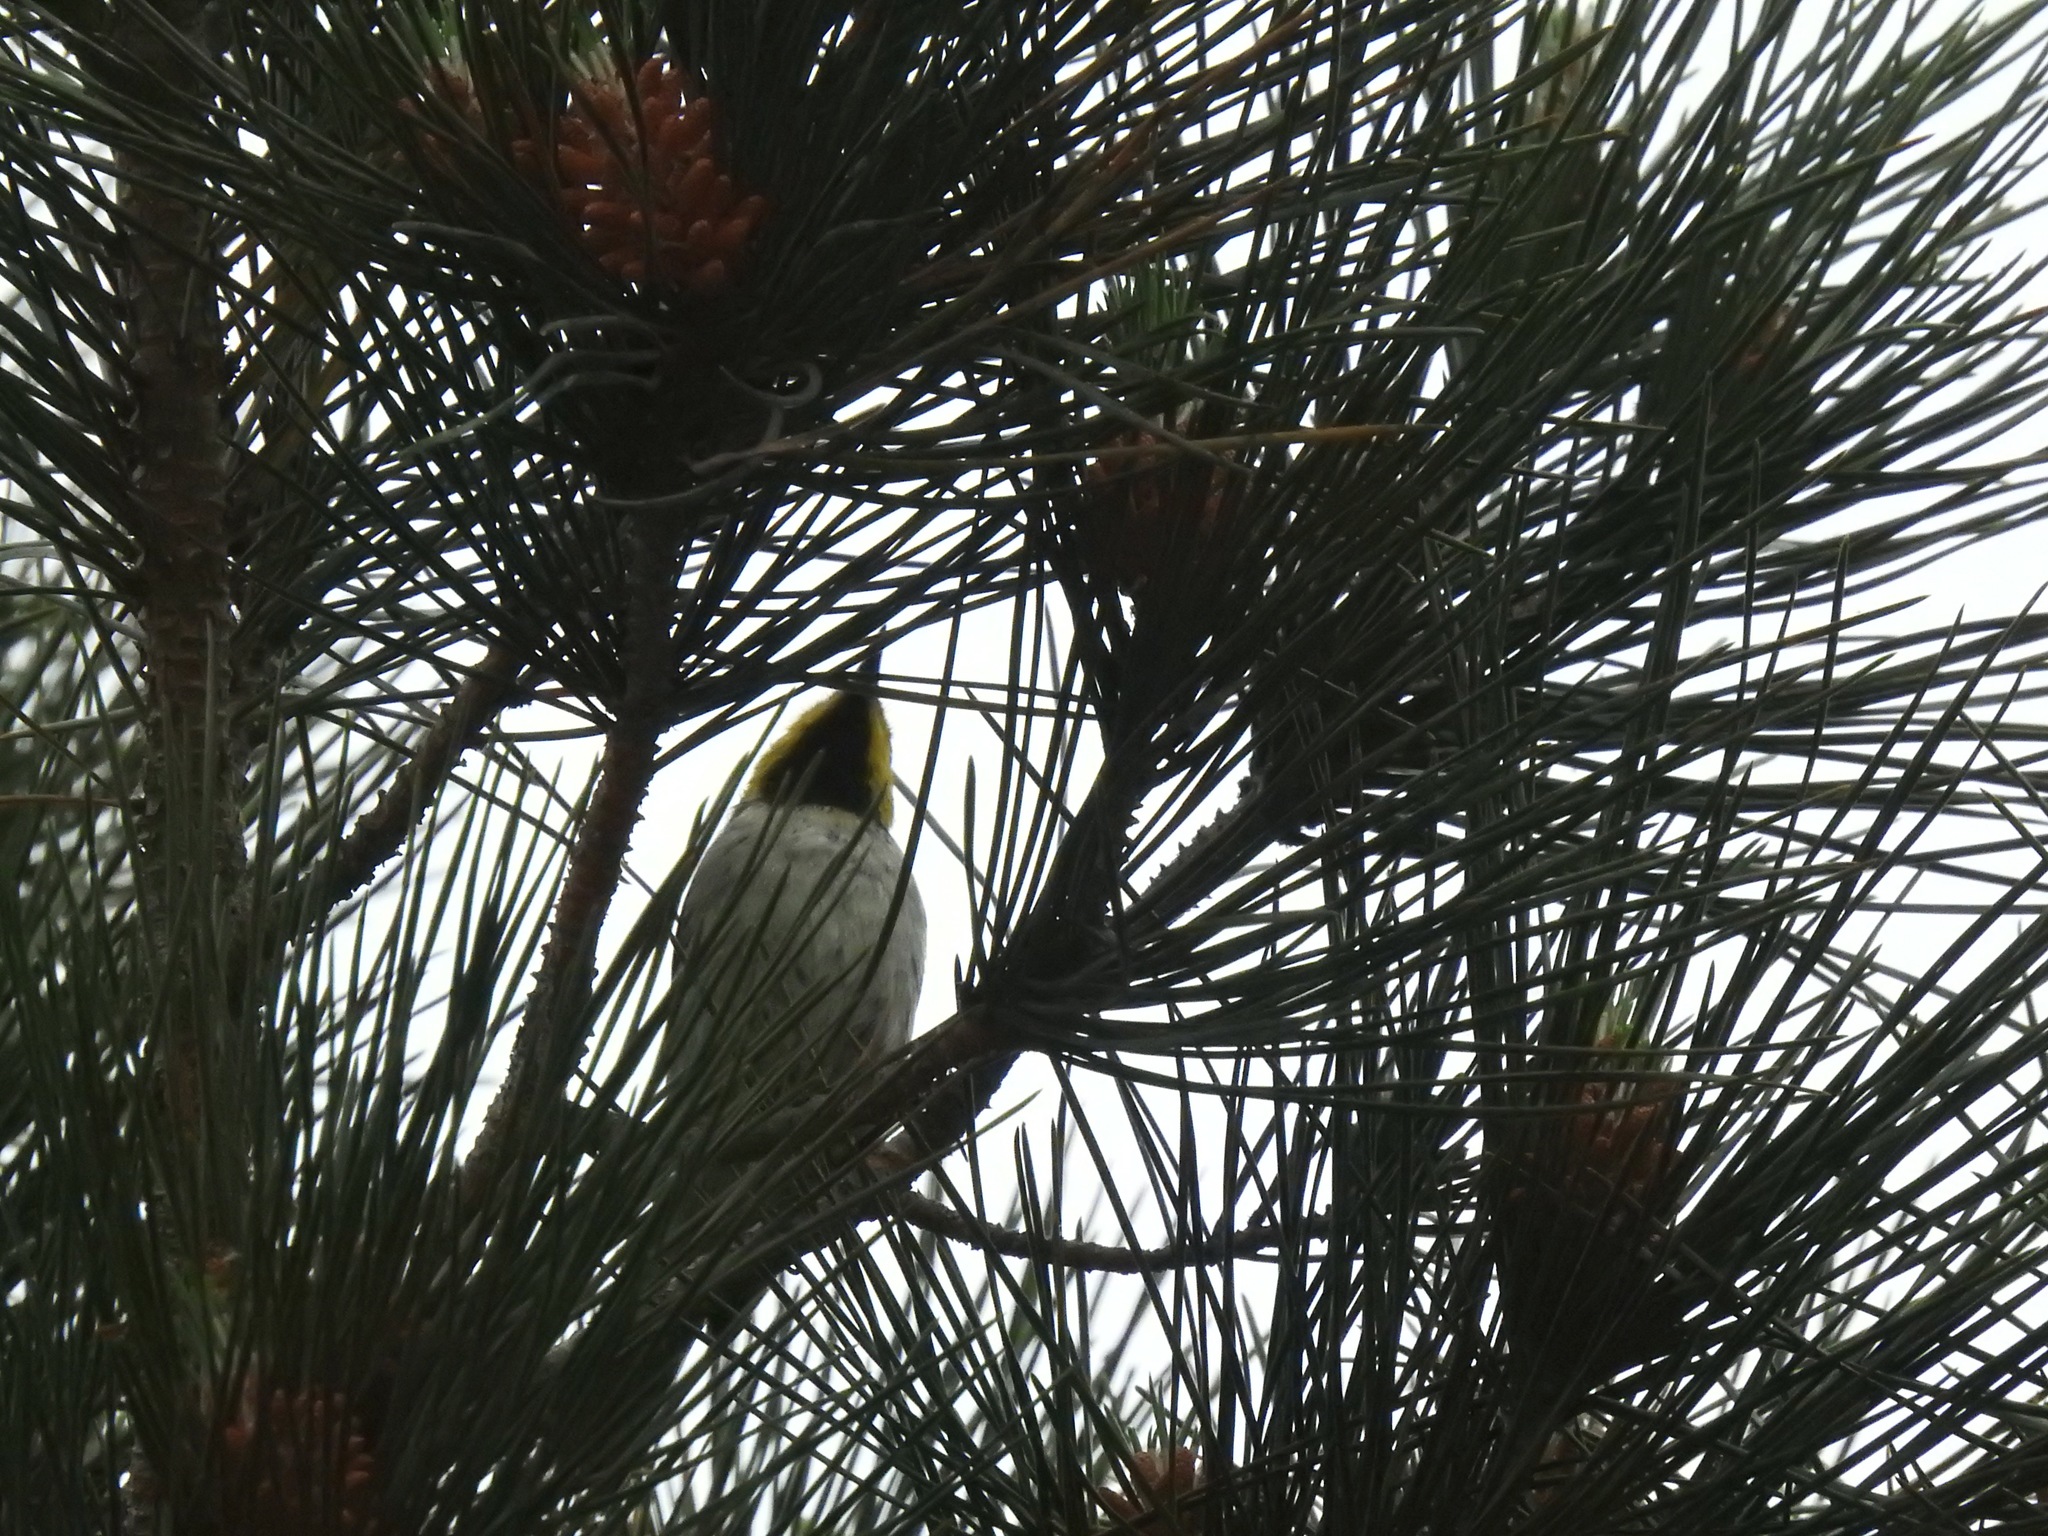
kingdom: Animalia
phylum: Chordata
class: Aves
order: Passeriformes
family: Parulidae
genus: Setophaga
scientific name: Setophaga occidentalis
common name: Hermit warbler
